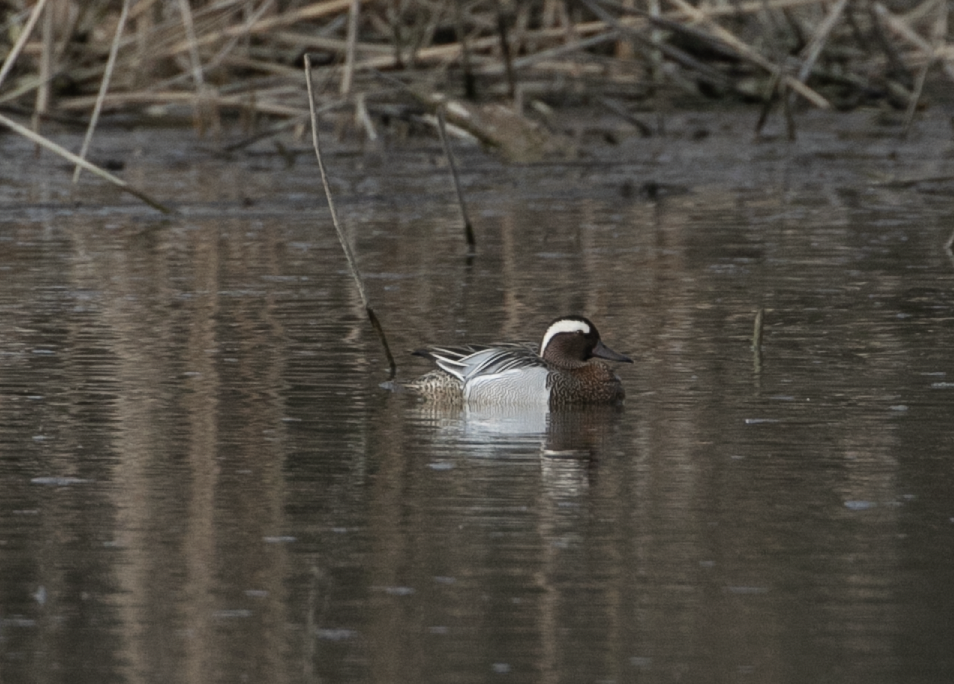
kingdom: Animalia
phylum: Chordata
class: Aves
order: Anseriformes
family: Anatidae
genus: Spatula
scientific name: Spatula querquedula
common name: Garganey
